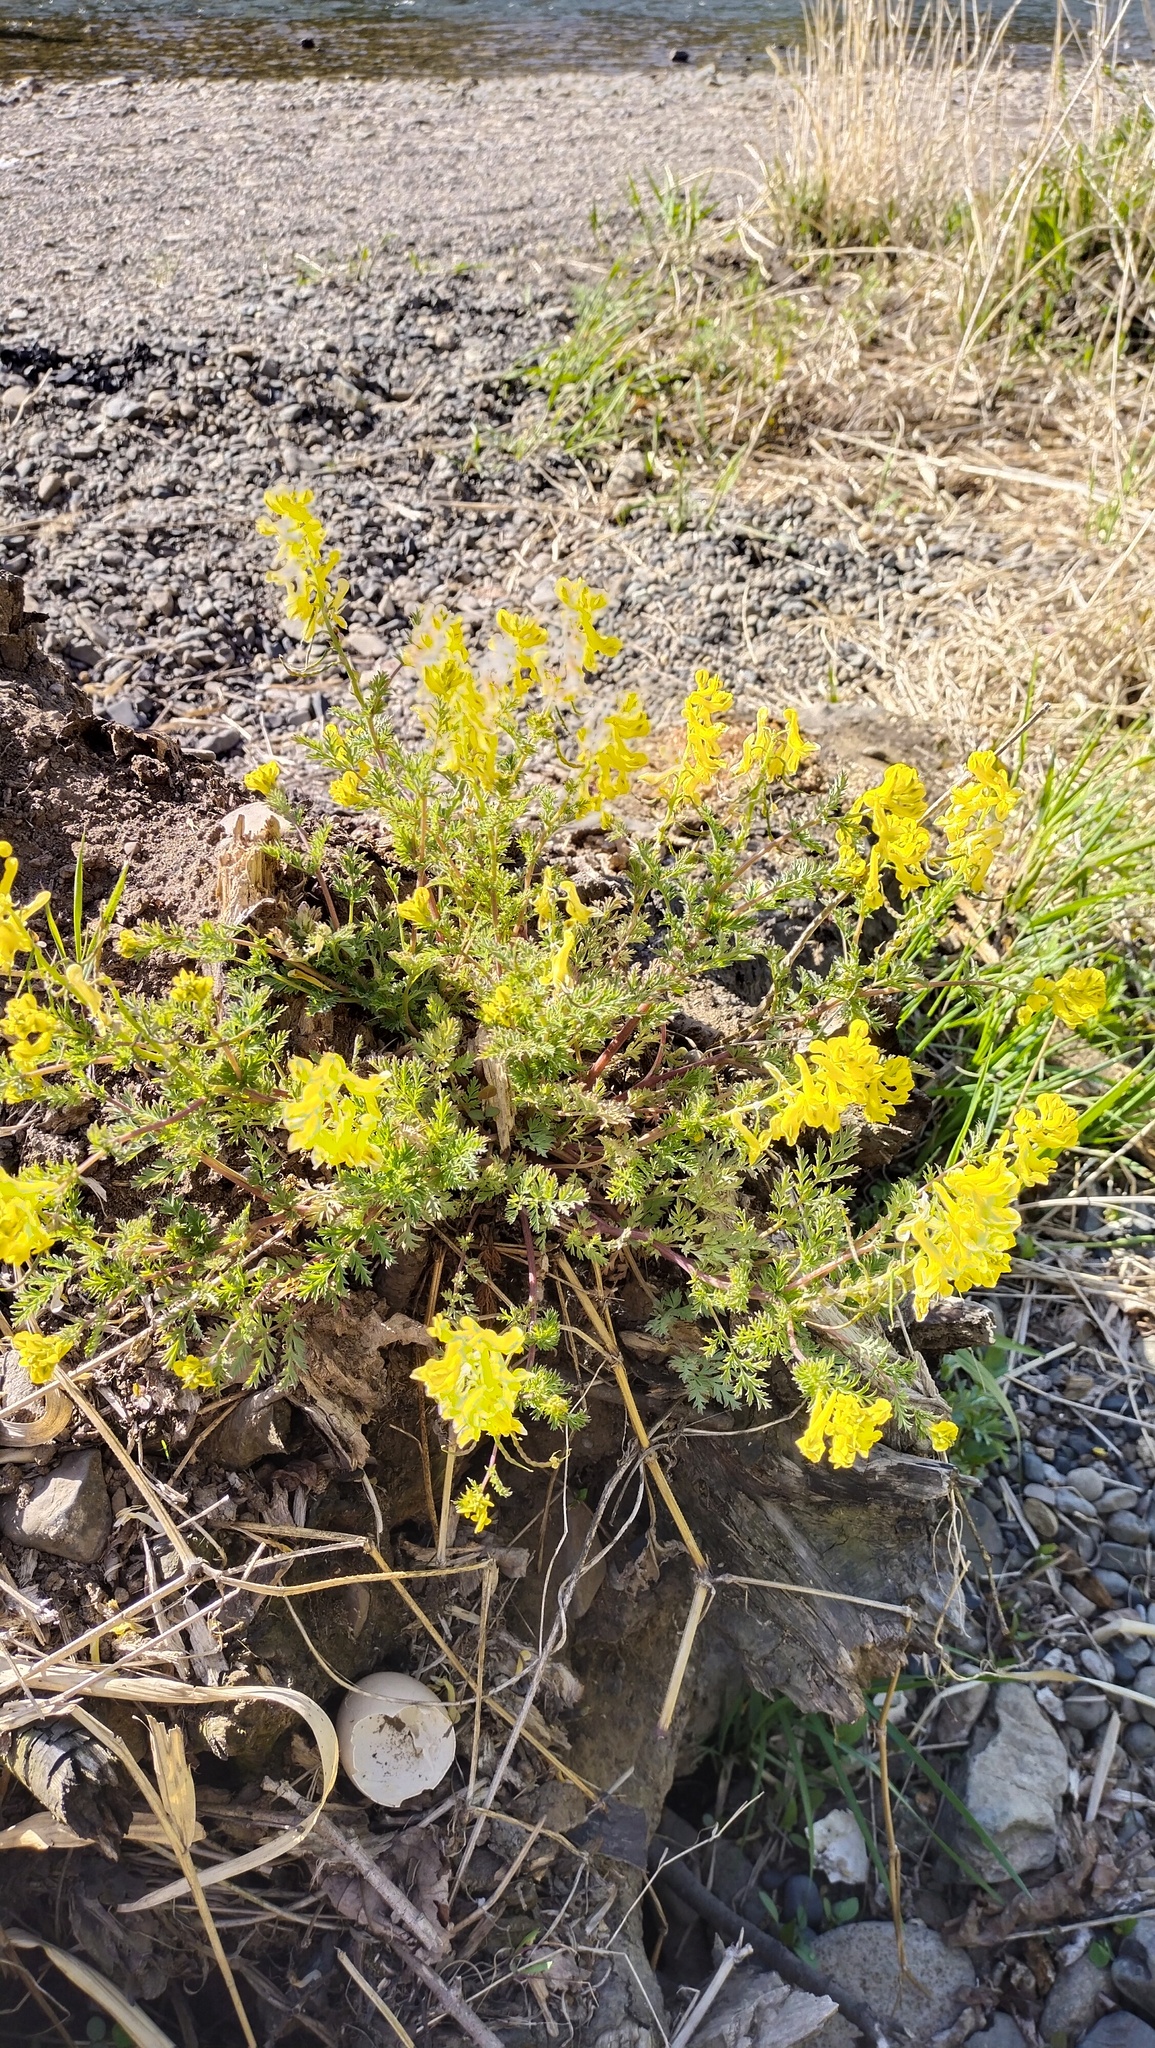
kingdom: Plantae
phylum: Tracheophyta
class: Magnoliopsida
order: Ranunculales
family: Papaveraceae
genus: Corydalis
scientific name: Corydalis speciosa
